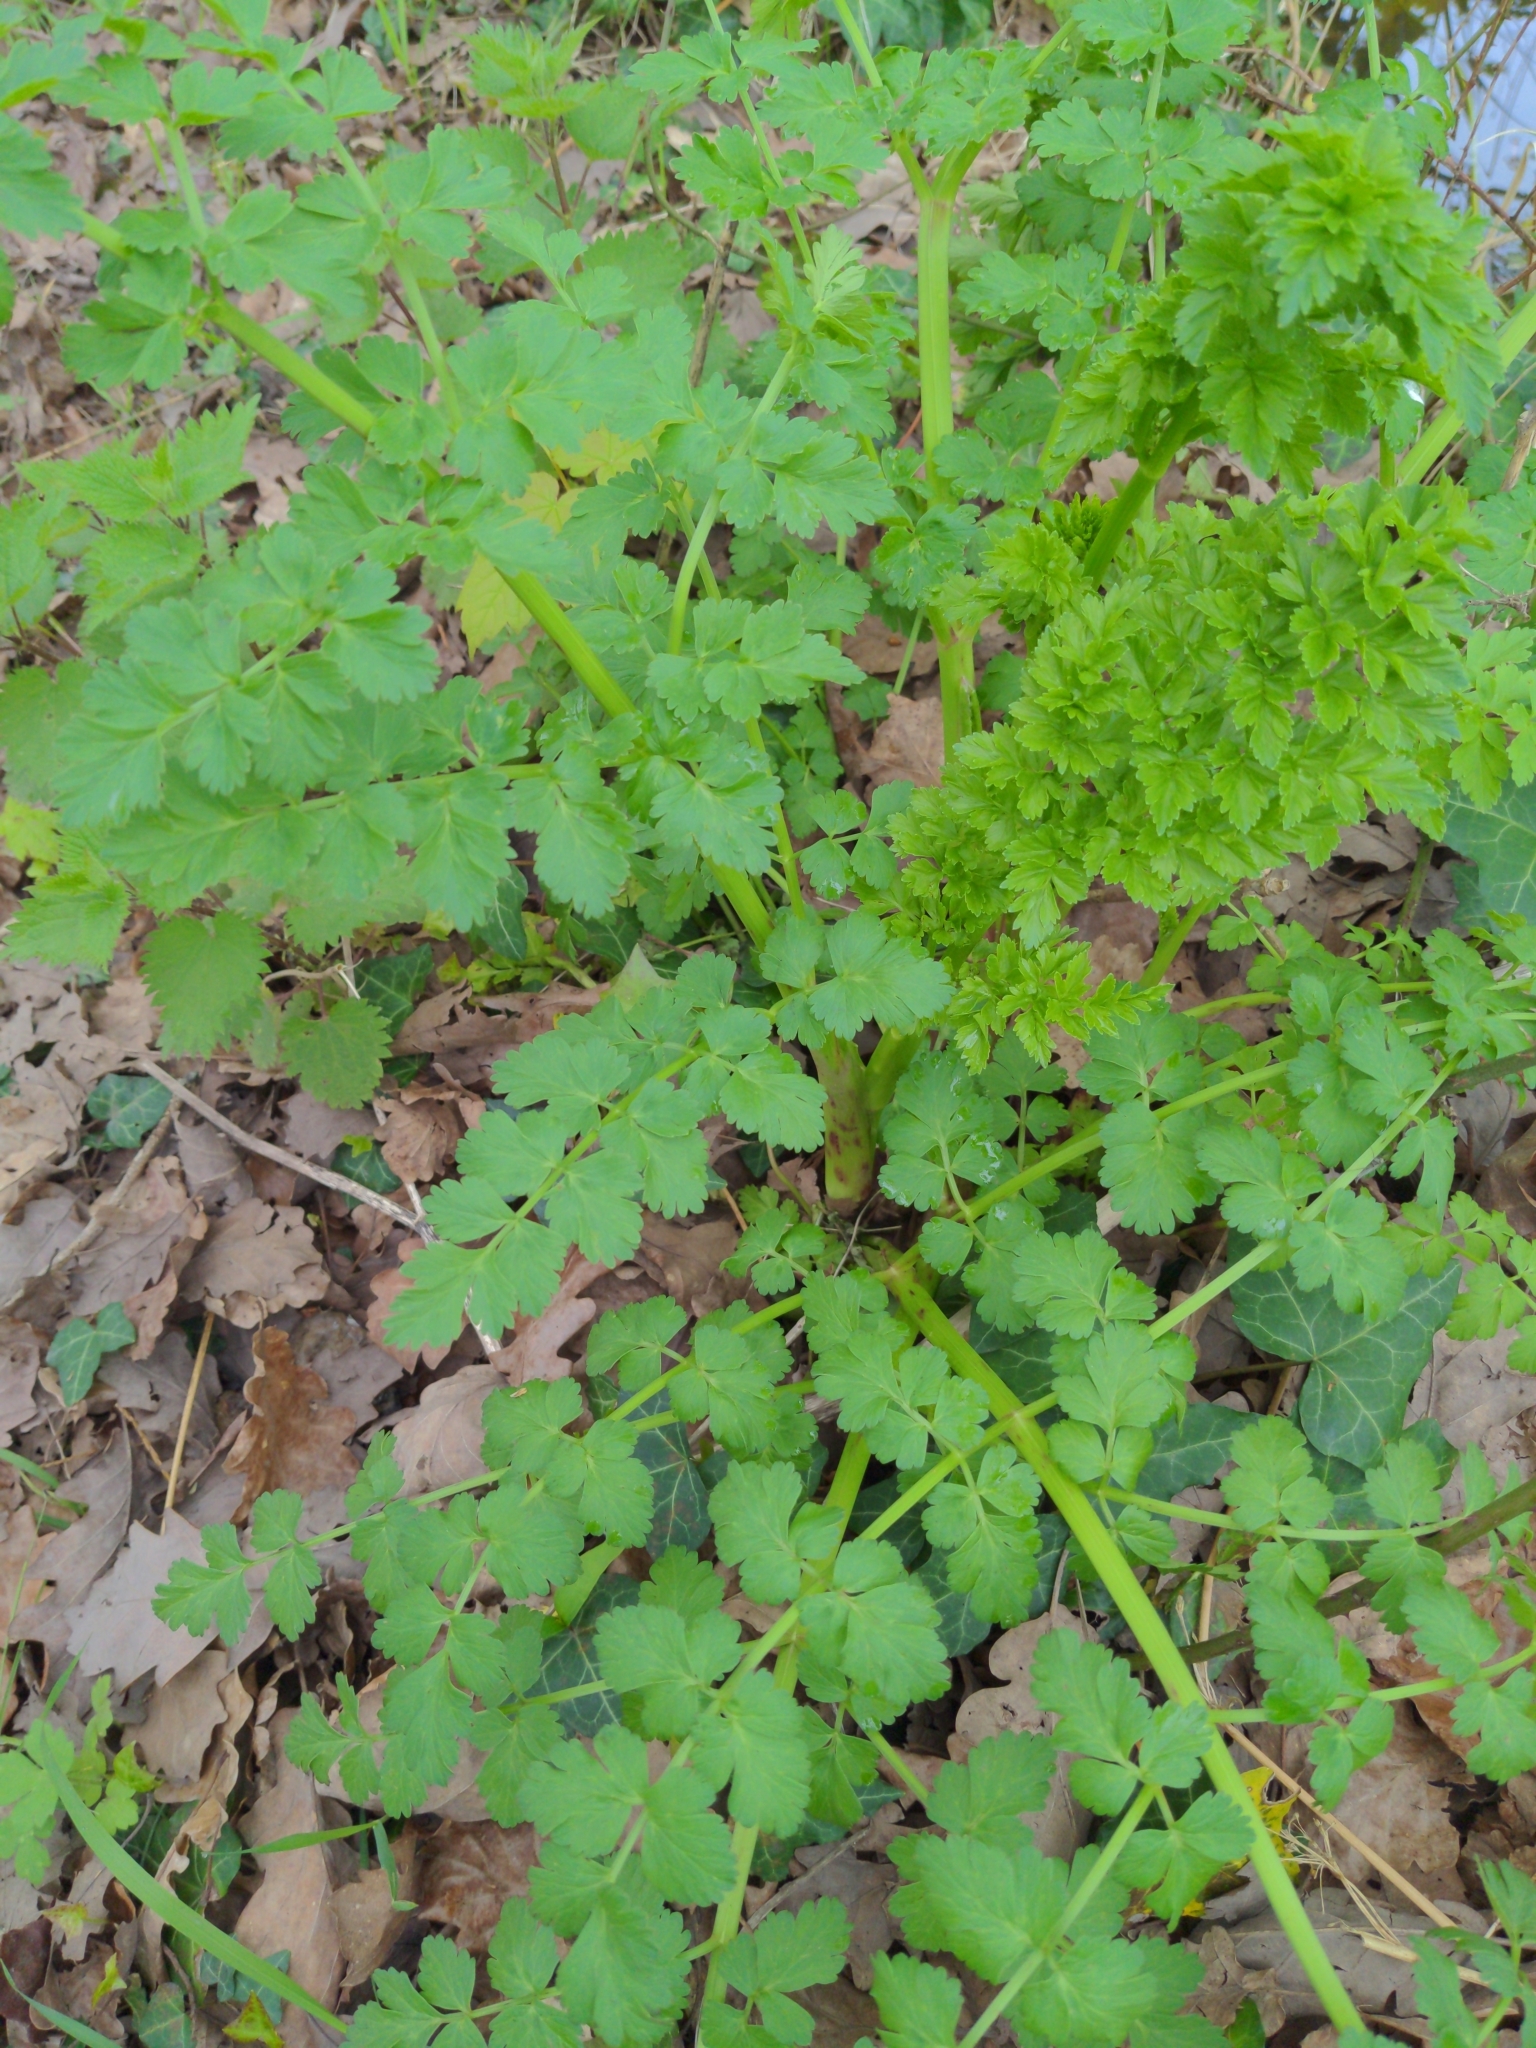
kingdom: Plantae
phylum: Tracheophyta
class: Magnoliopsida
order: Apiales
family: Apiaceae
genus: Oenanthe
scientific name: Oenanthe crocata
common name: Hemlock water-dropwort
